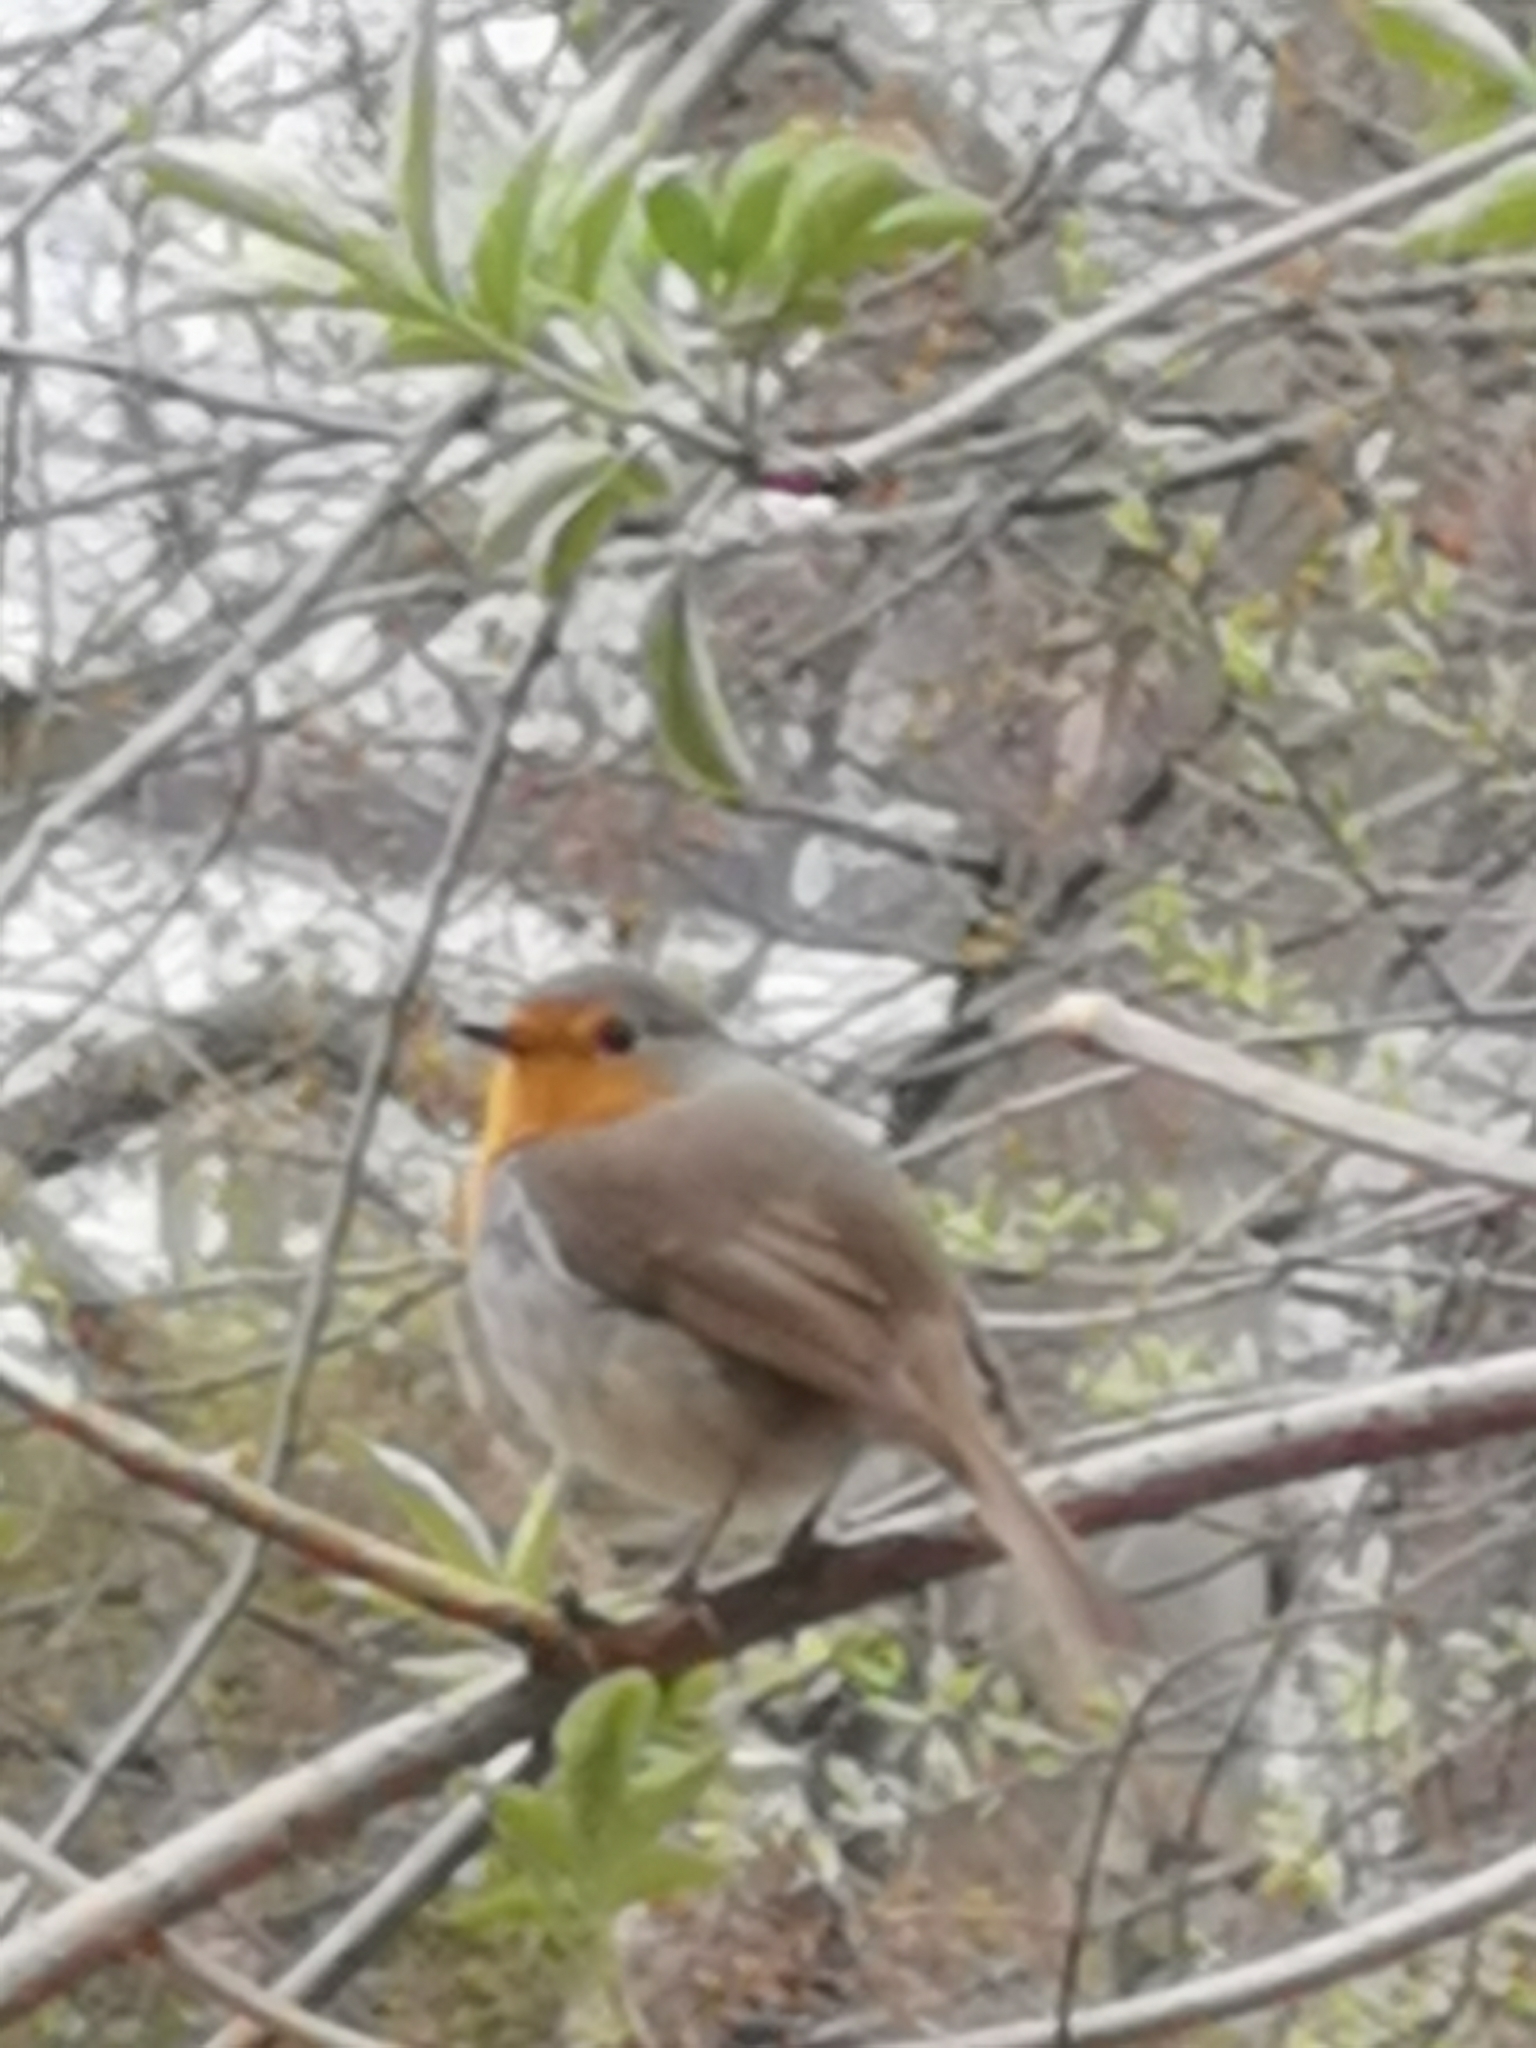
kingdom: Animalia
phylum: Chordata
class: Aves
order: Passeriformes
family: Muscicapidae
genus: Erithacus
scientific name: Erithacus rubecula
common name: European robin
